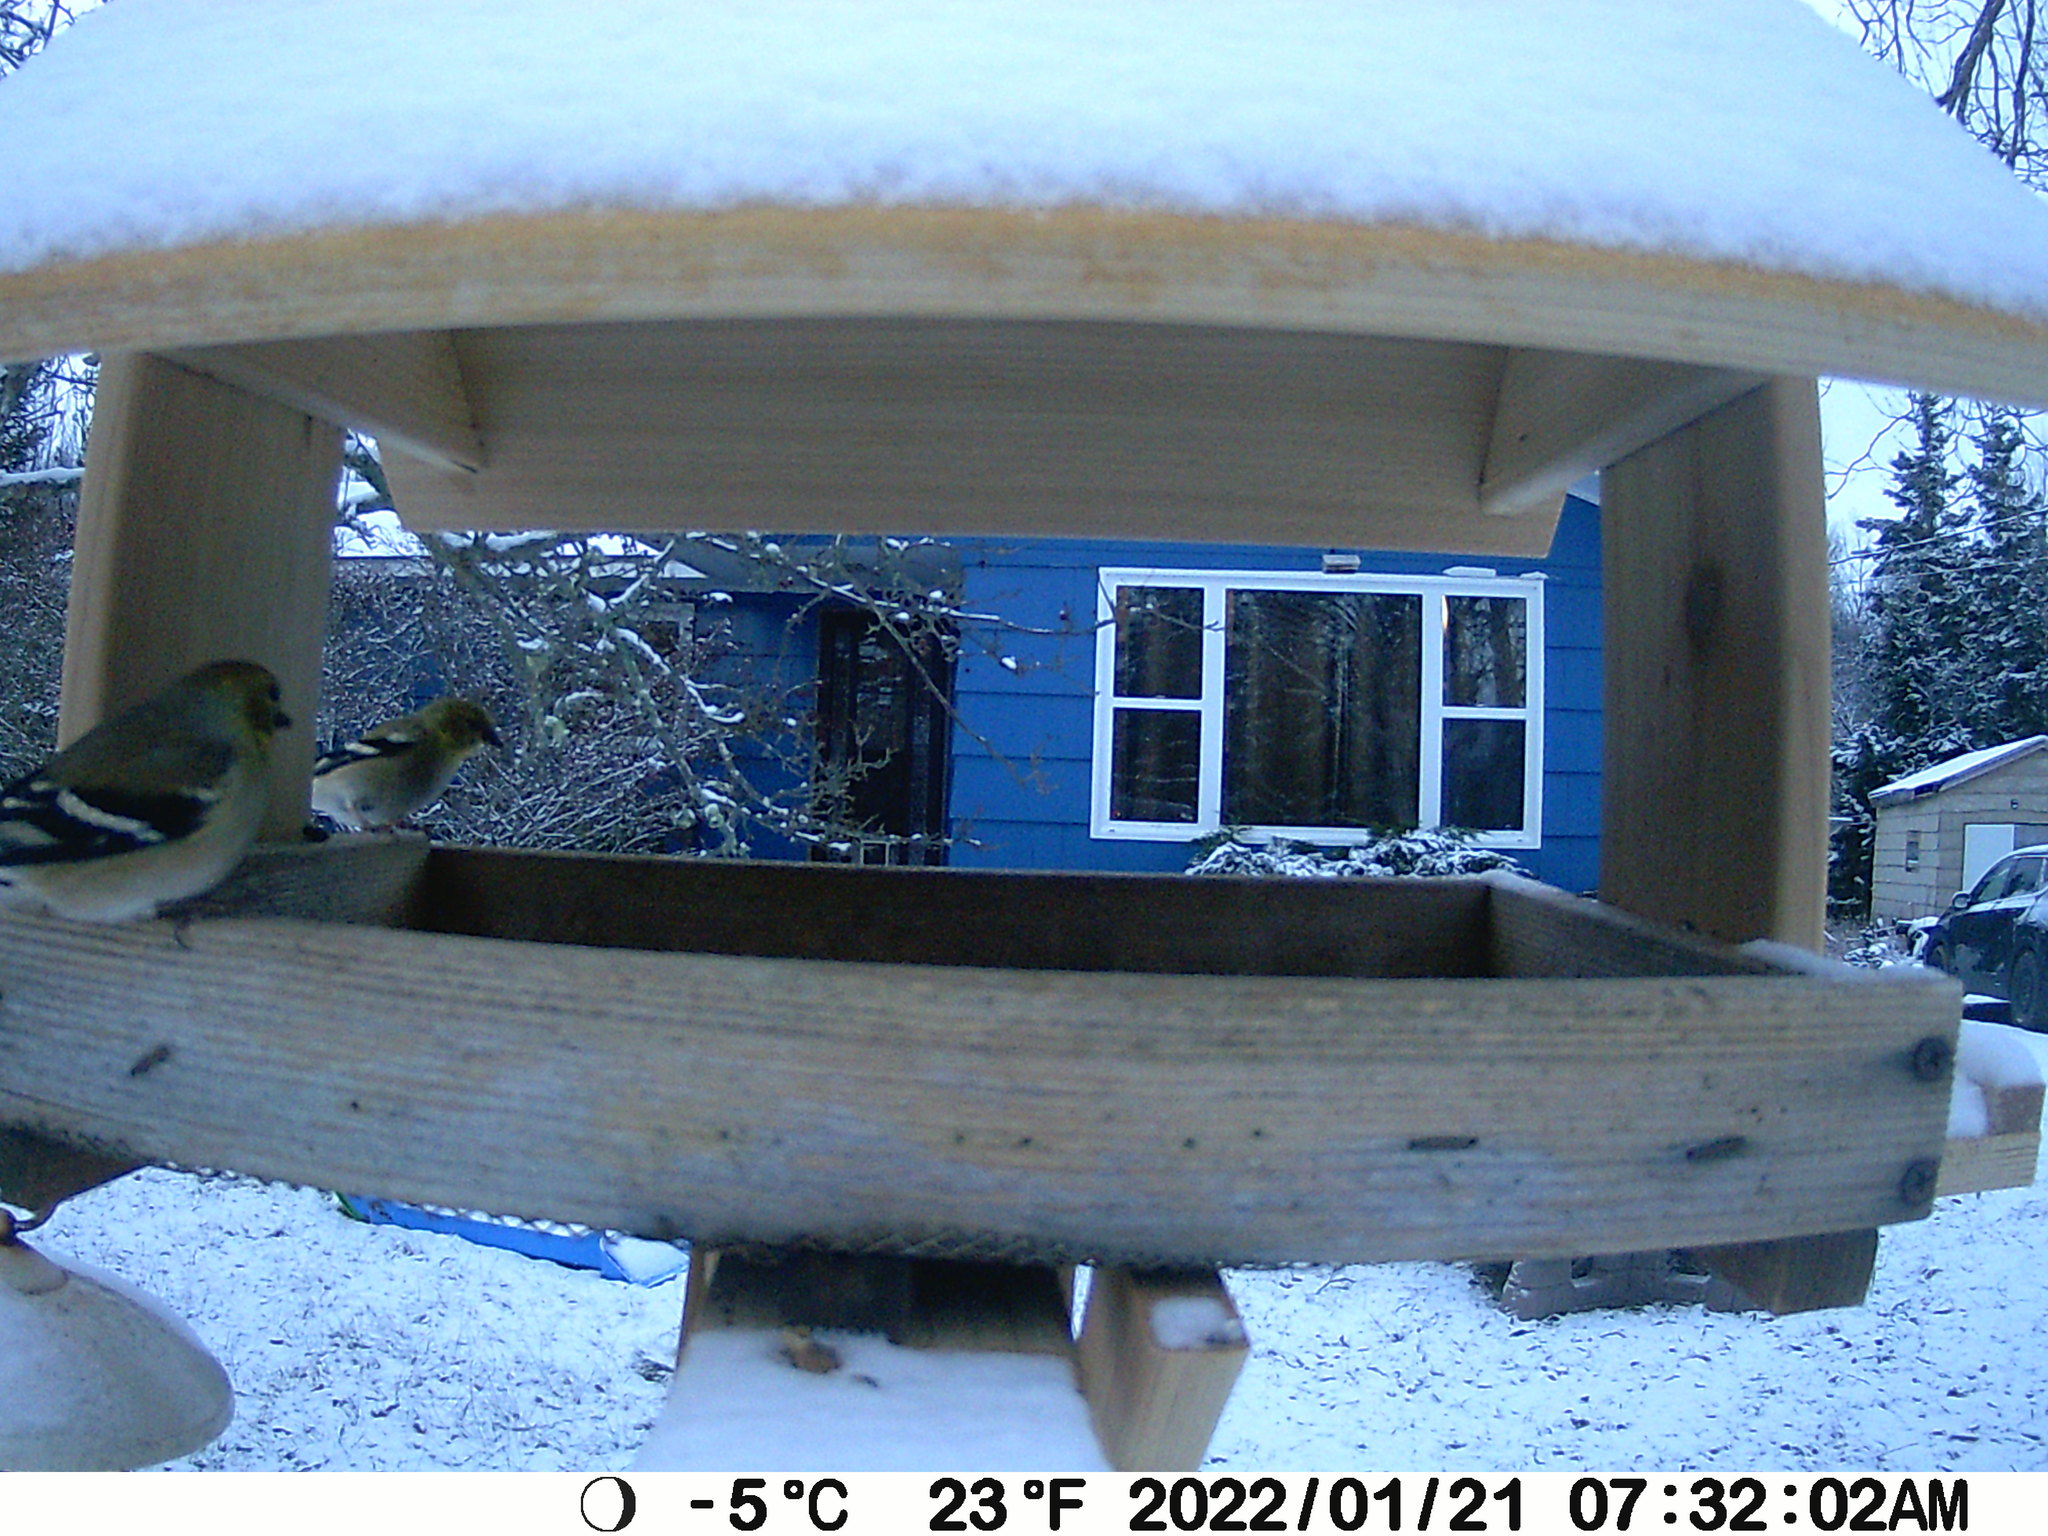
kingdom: Animalia
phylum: Chordata
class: Aves
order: Passeriformes
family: Fringillidae
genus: Spinus
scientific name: Spinus tristis
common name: American goldfinch
